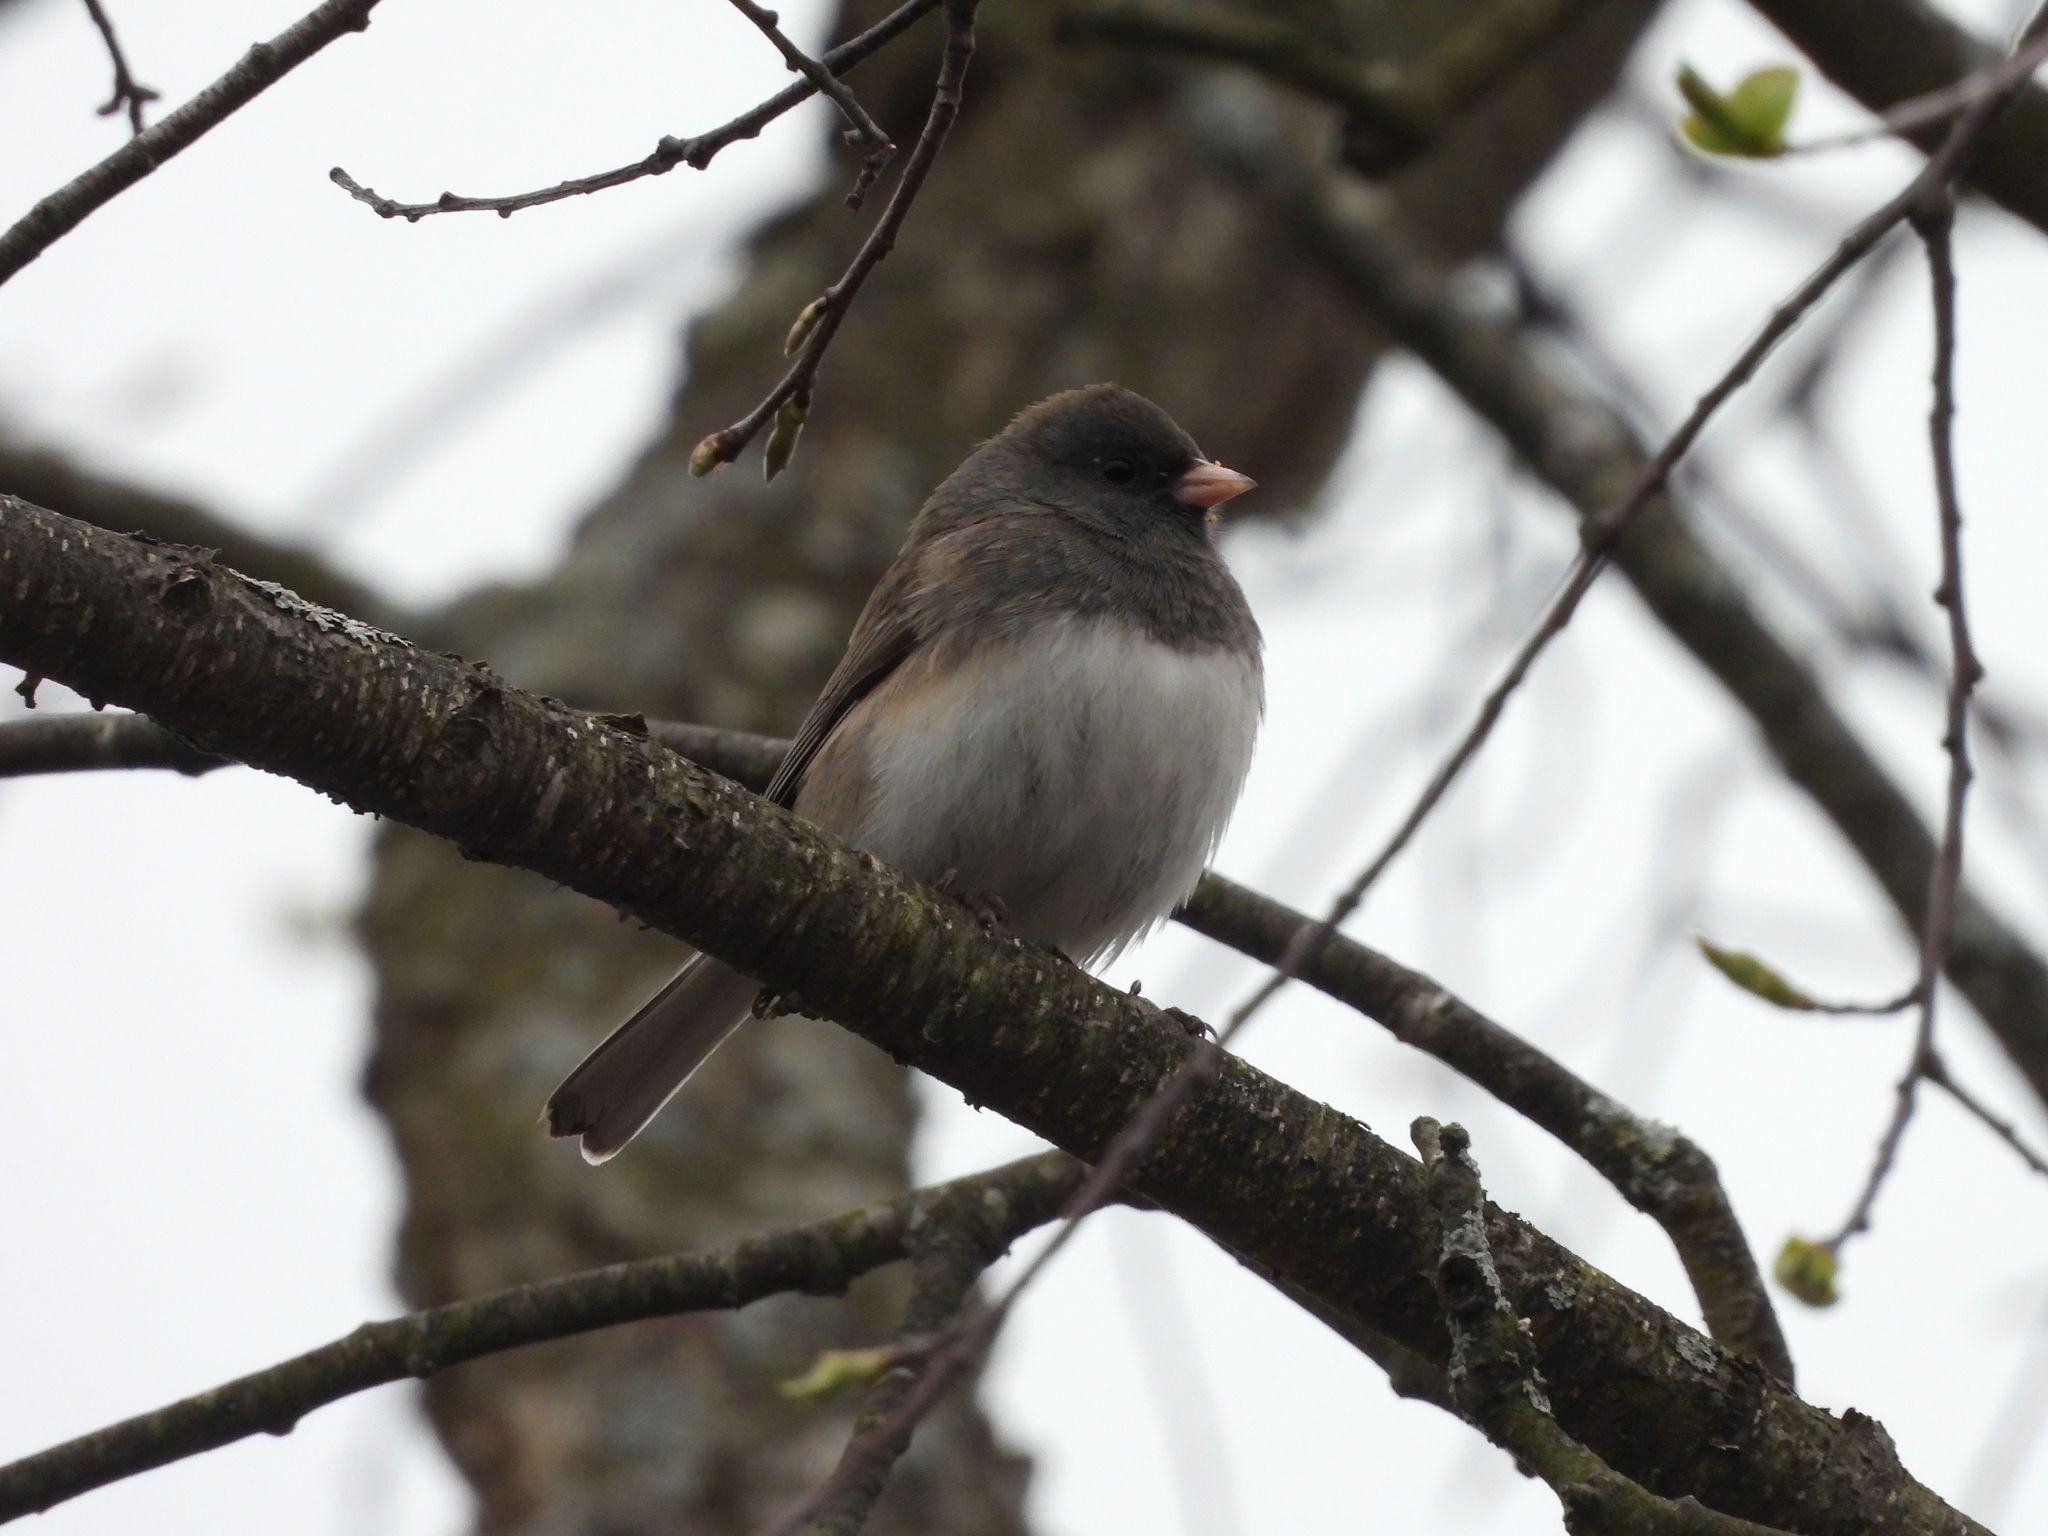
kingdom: Animalia
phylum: Chordata
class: Aves
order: Passeriformes
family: Passerellidae
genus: Junco
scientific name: Junco hyemalis
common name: Dark-eyed junco
